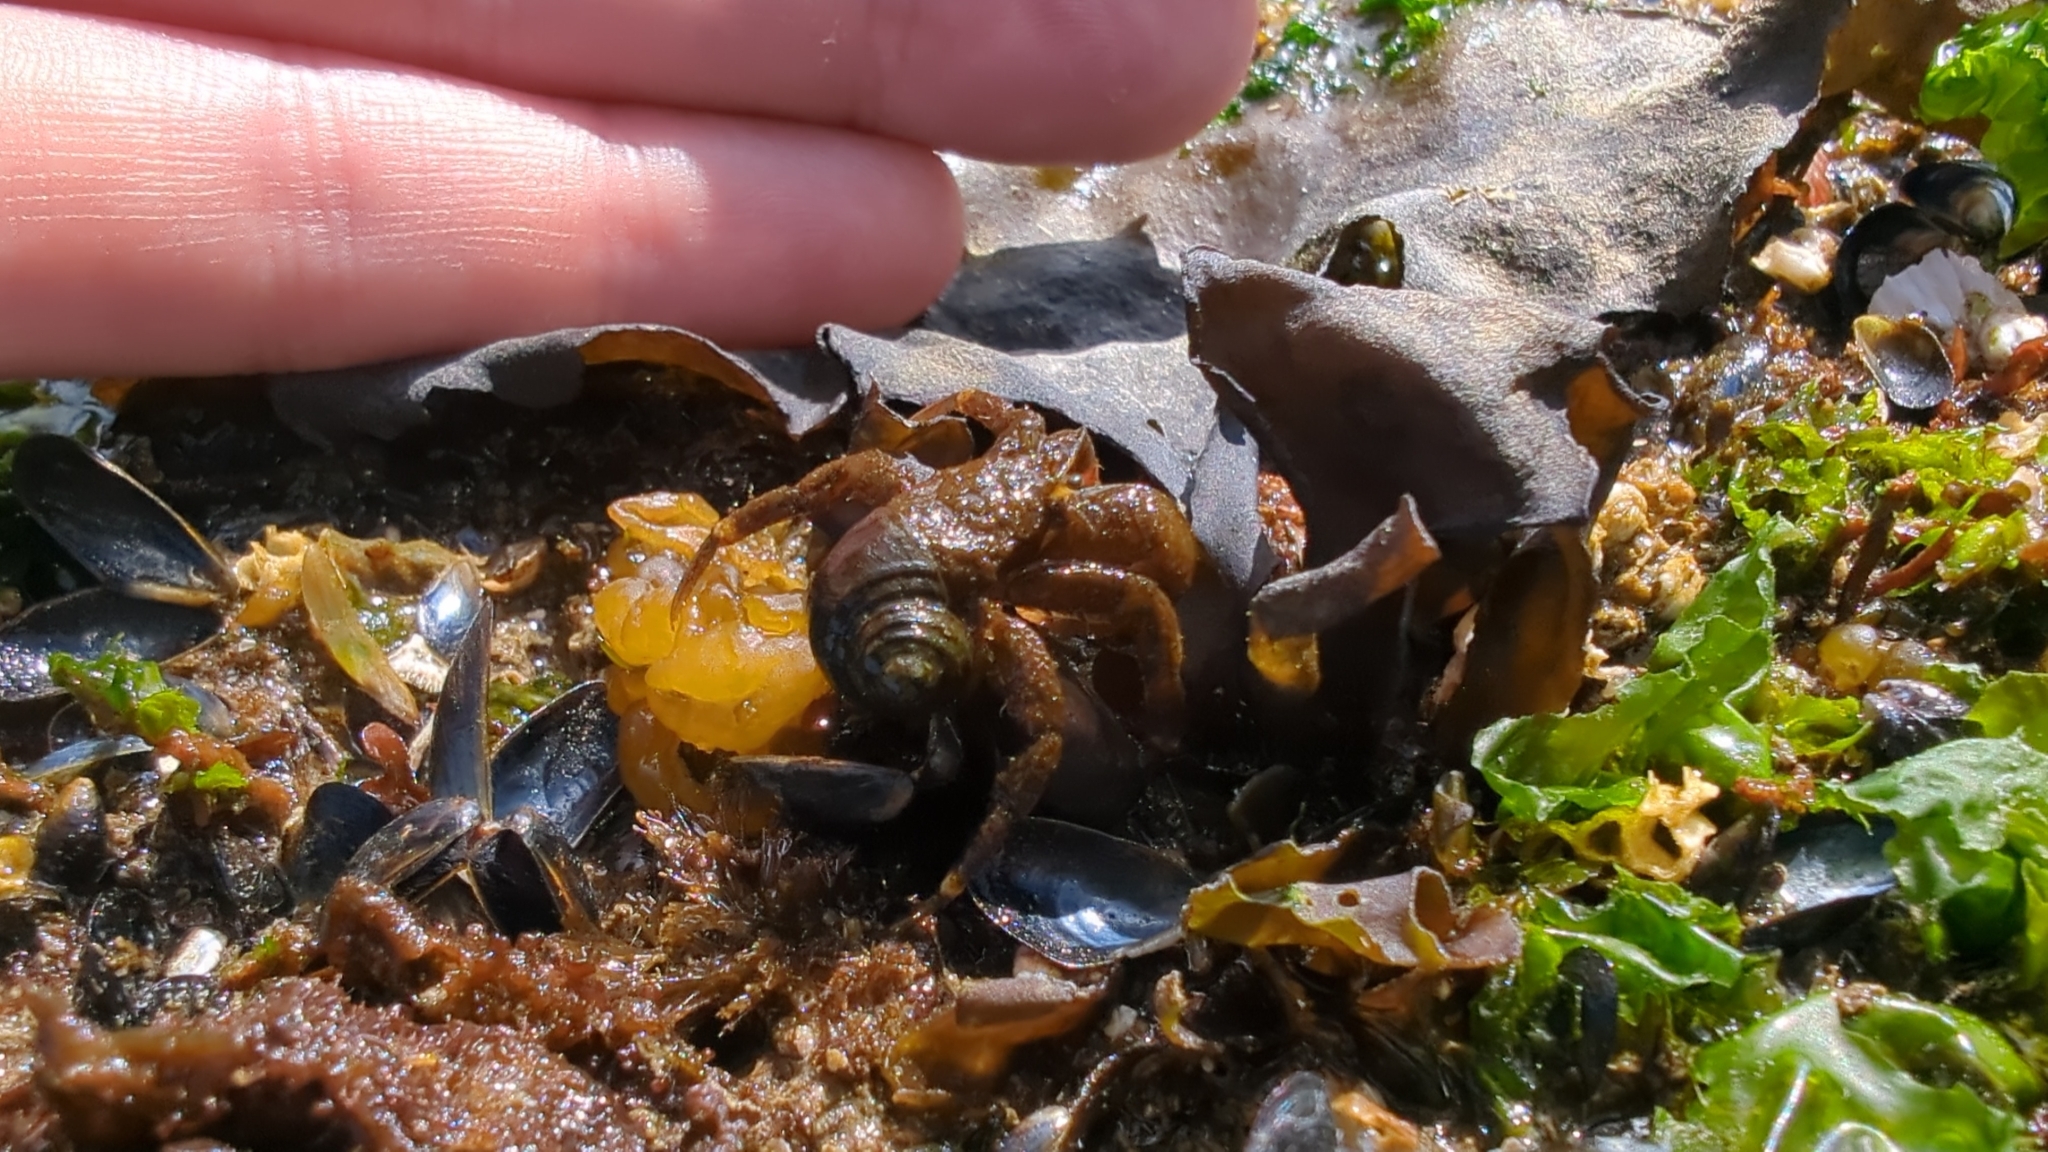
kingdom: Animalia
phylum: Arthropoda
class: Malacostraca
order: Decapoda
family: Paguridae
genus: Pagurus
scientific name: Pagurus hirsutiusculus
